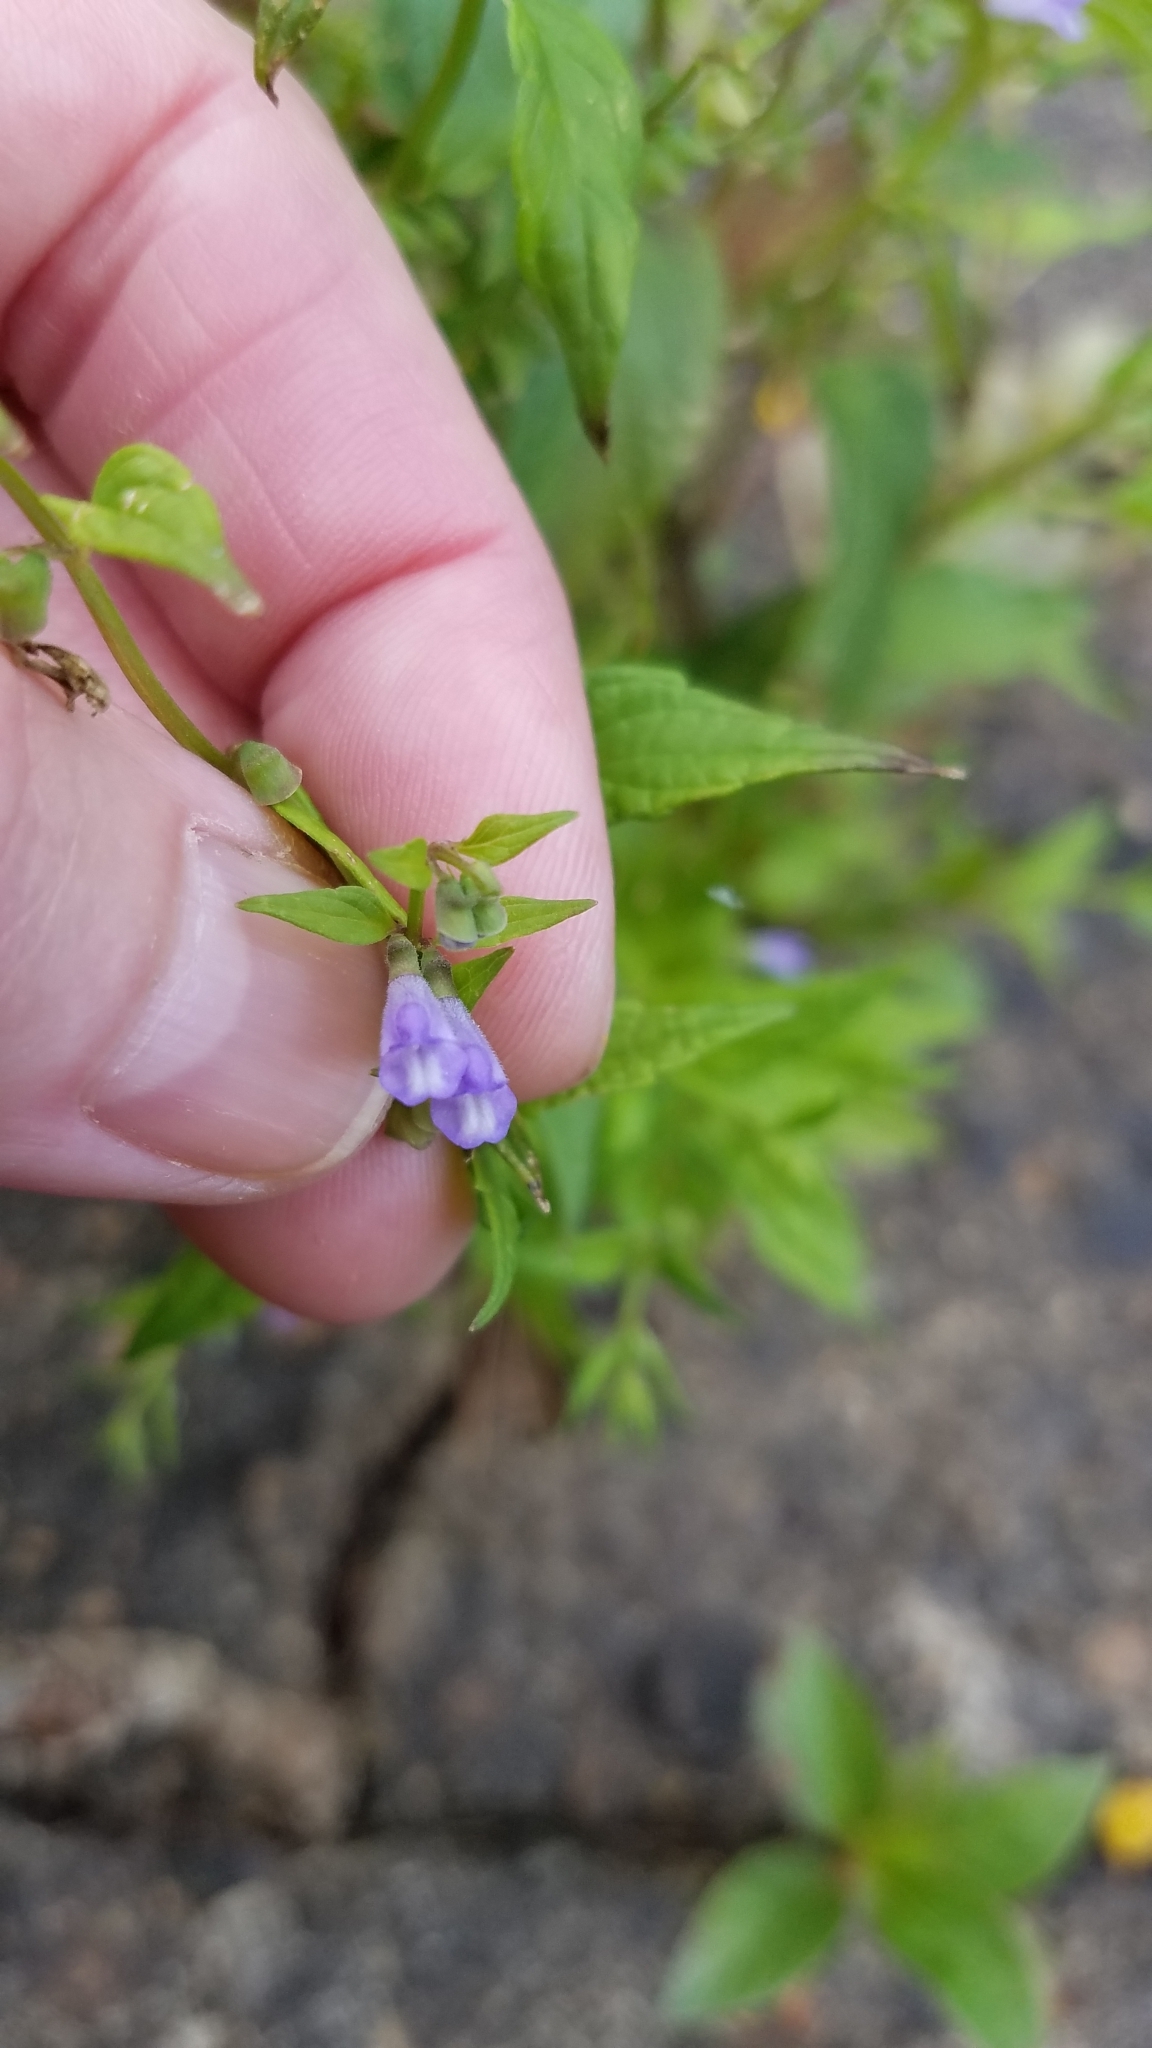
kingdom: Plantae
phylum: Tracheophyta
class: Magnoliopsida
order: Lamiales
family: Lamiaceae
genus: Scutellaria
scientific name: Scutellaria lateriflora
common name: Blue skullcap
